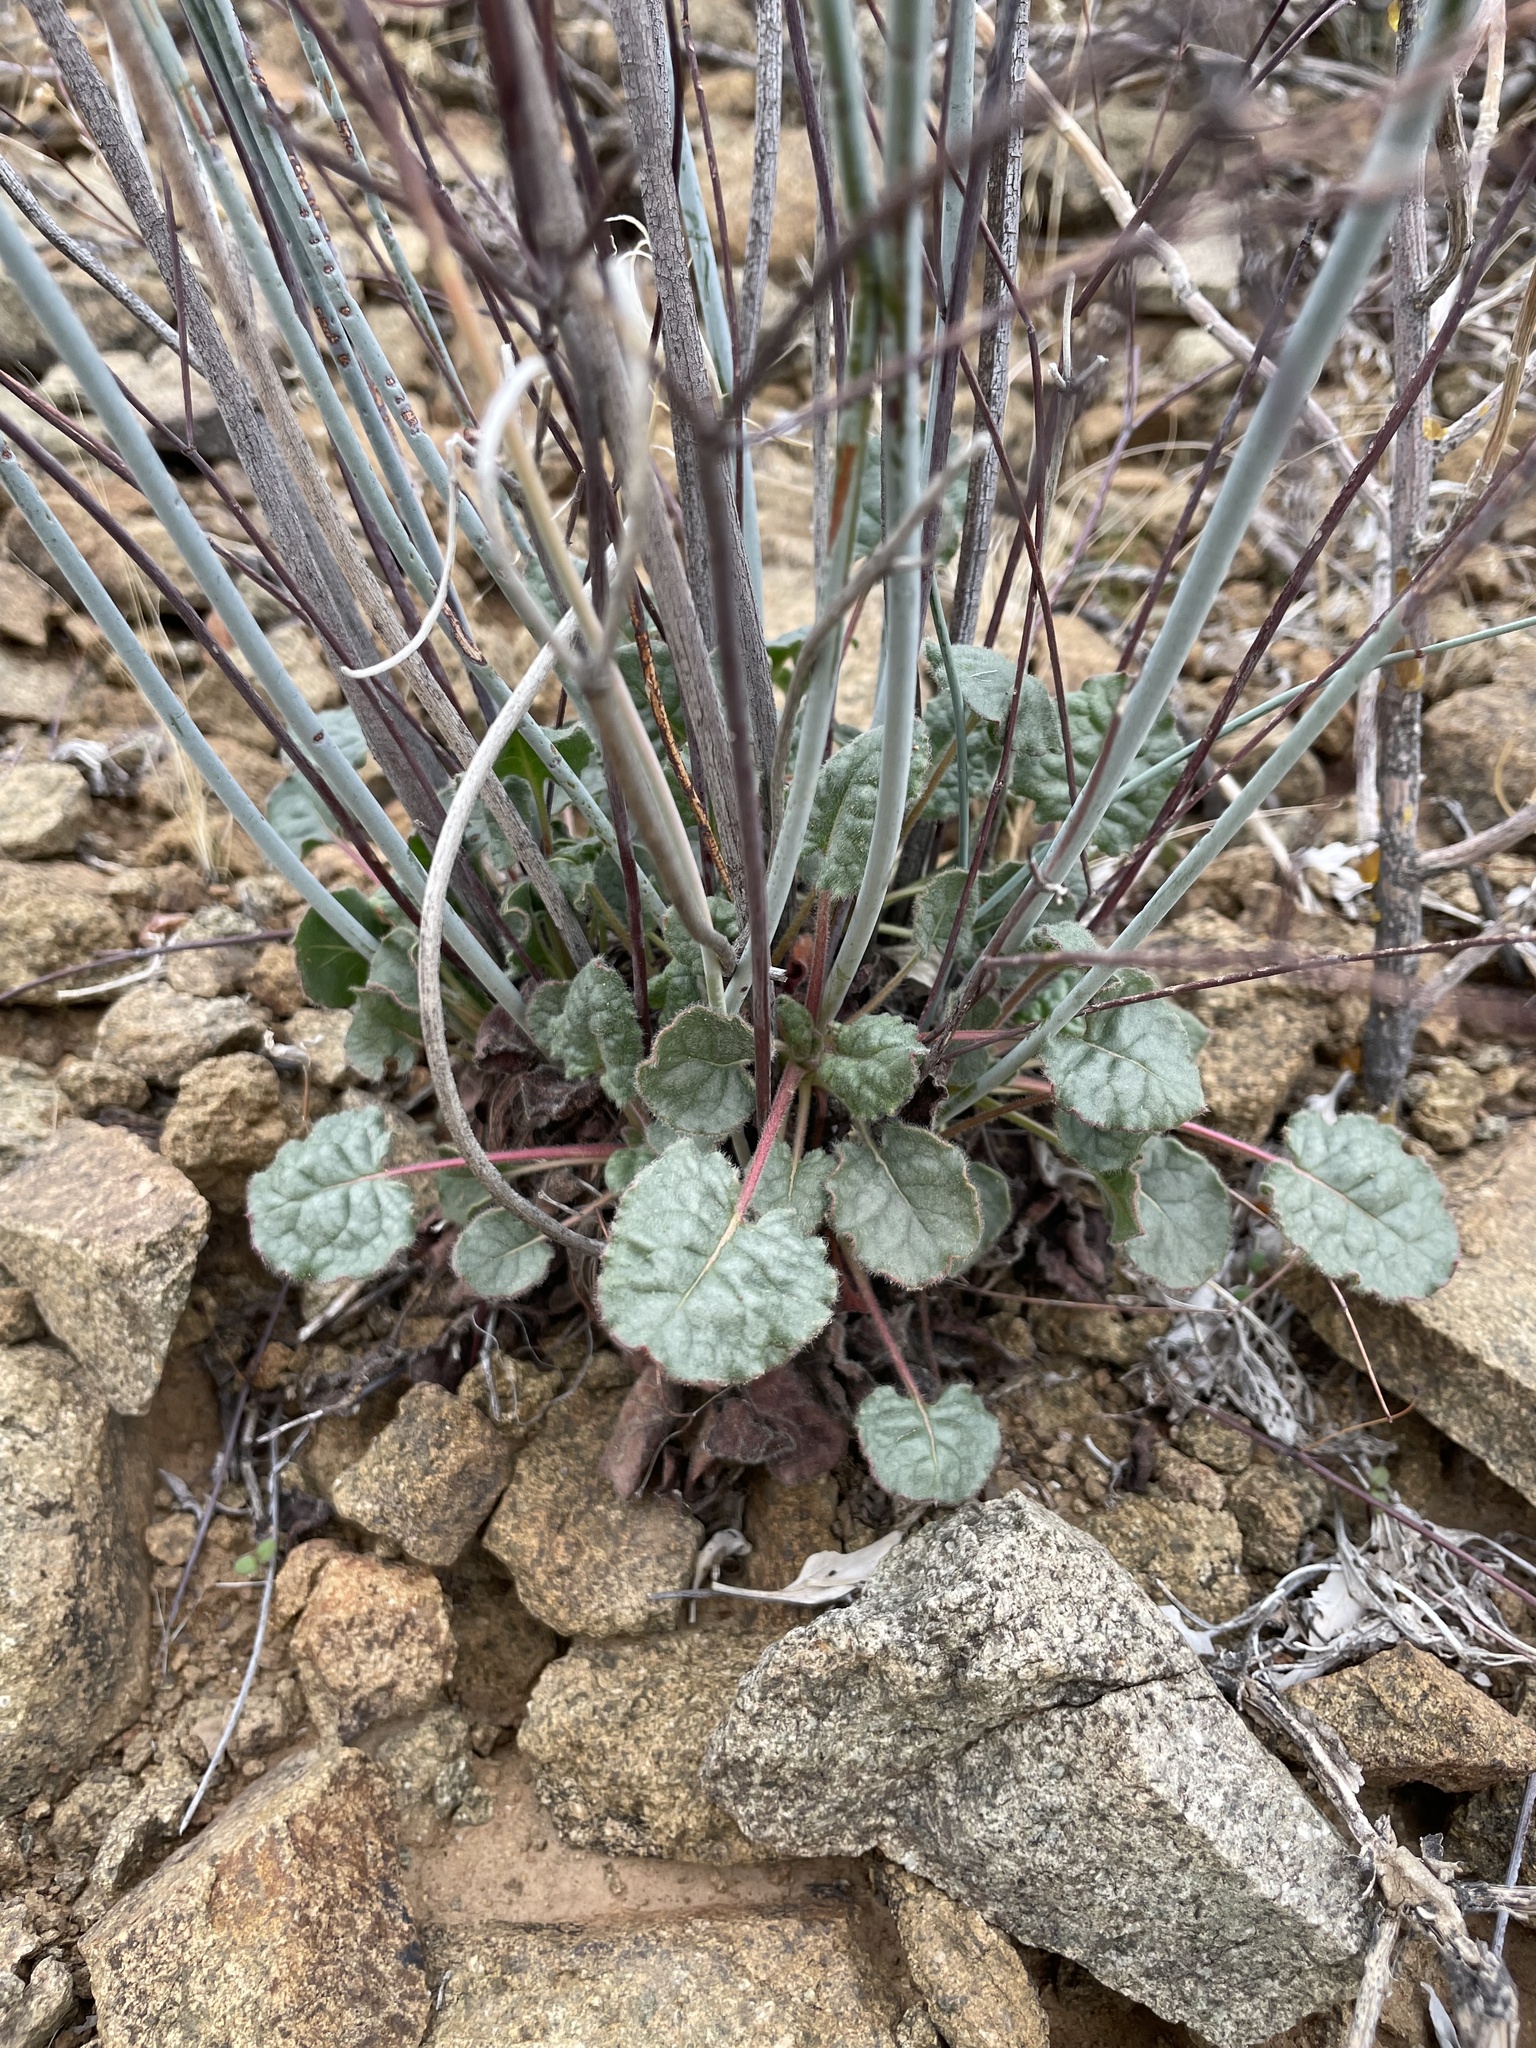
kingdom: Plantae
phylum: Tracheophyta
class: Magnoliopsida
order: Caryophyllales
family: Polygonaceae
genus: Eriogonum
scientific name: Eriogonum inflatum
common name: Desert trumpet
